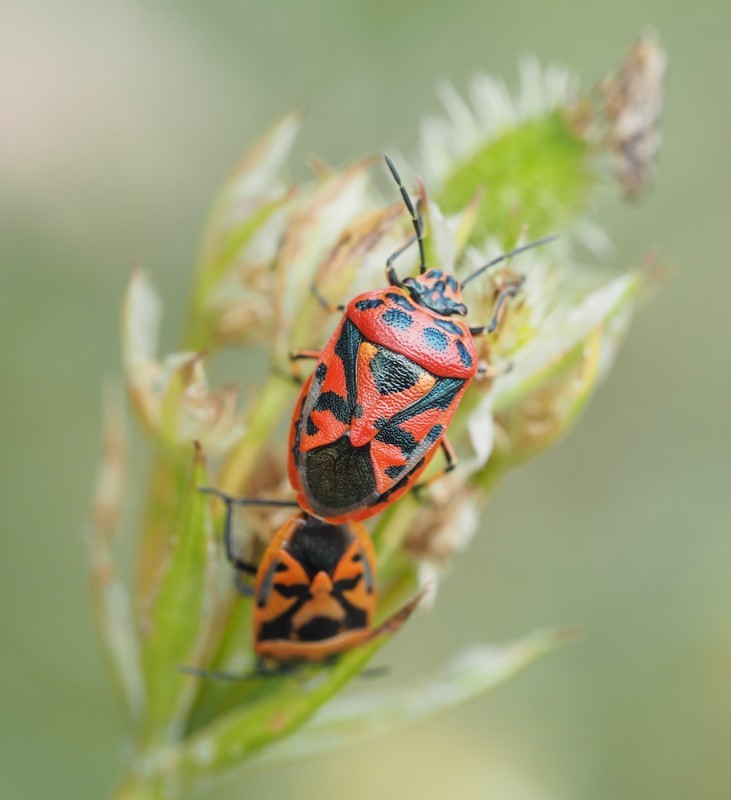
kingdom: Animalia
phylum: Arthropoda
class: Insecta
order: Hemiptera
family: Pentatomidae
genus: Eurydema
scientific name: Eurydema ornata
